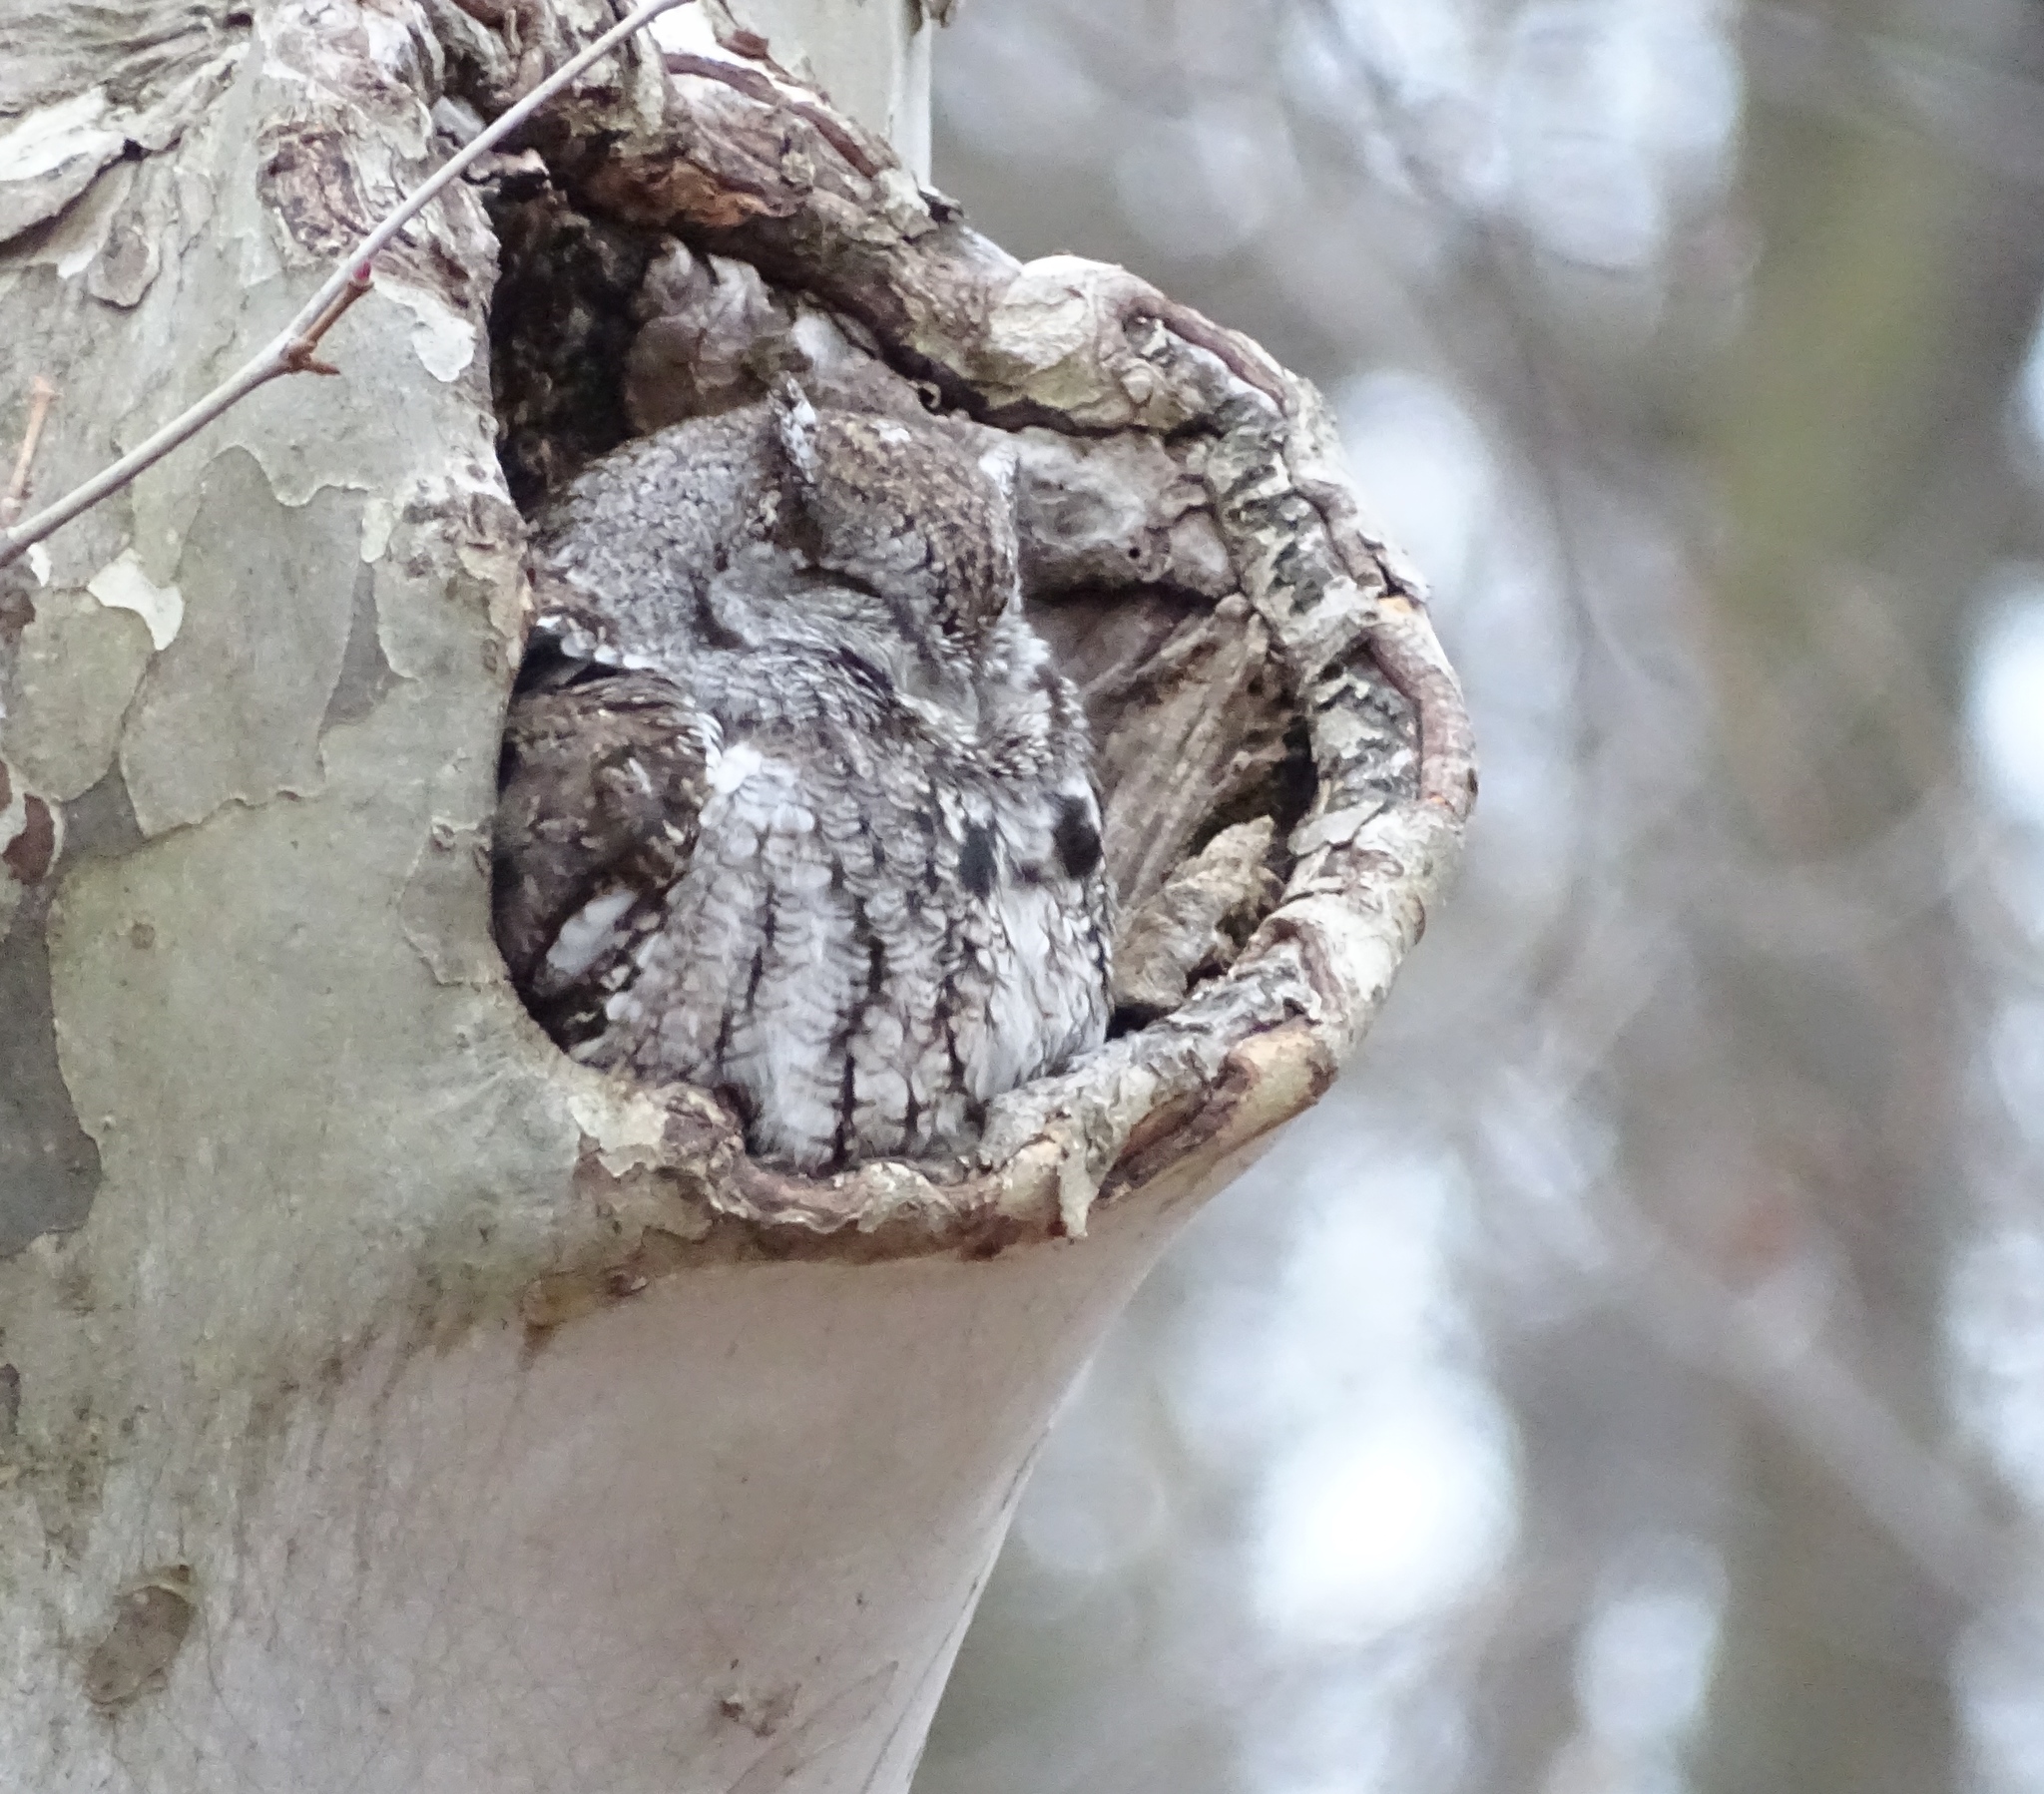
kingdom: Animalia
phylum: Chordata
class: Aves
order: Strigiformes
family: Strigidae
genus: Megascops
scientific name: Megascops asio
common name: Eastern screech-owl
